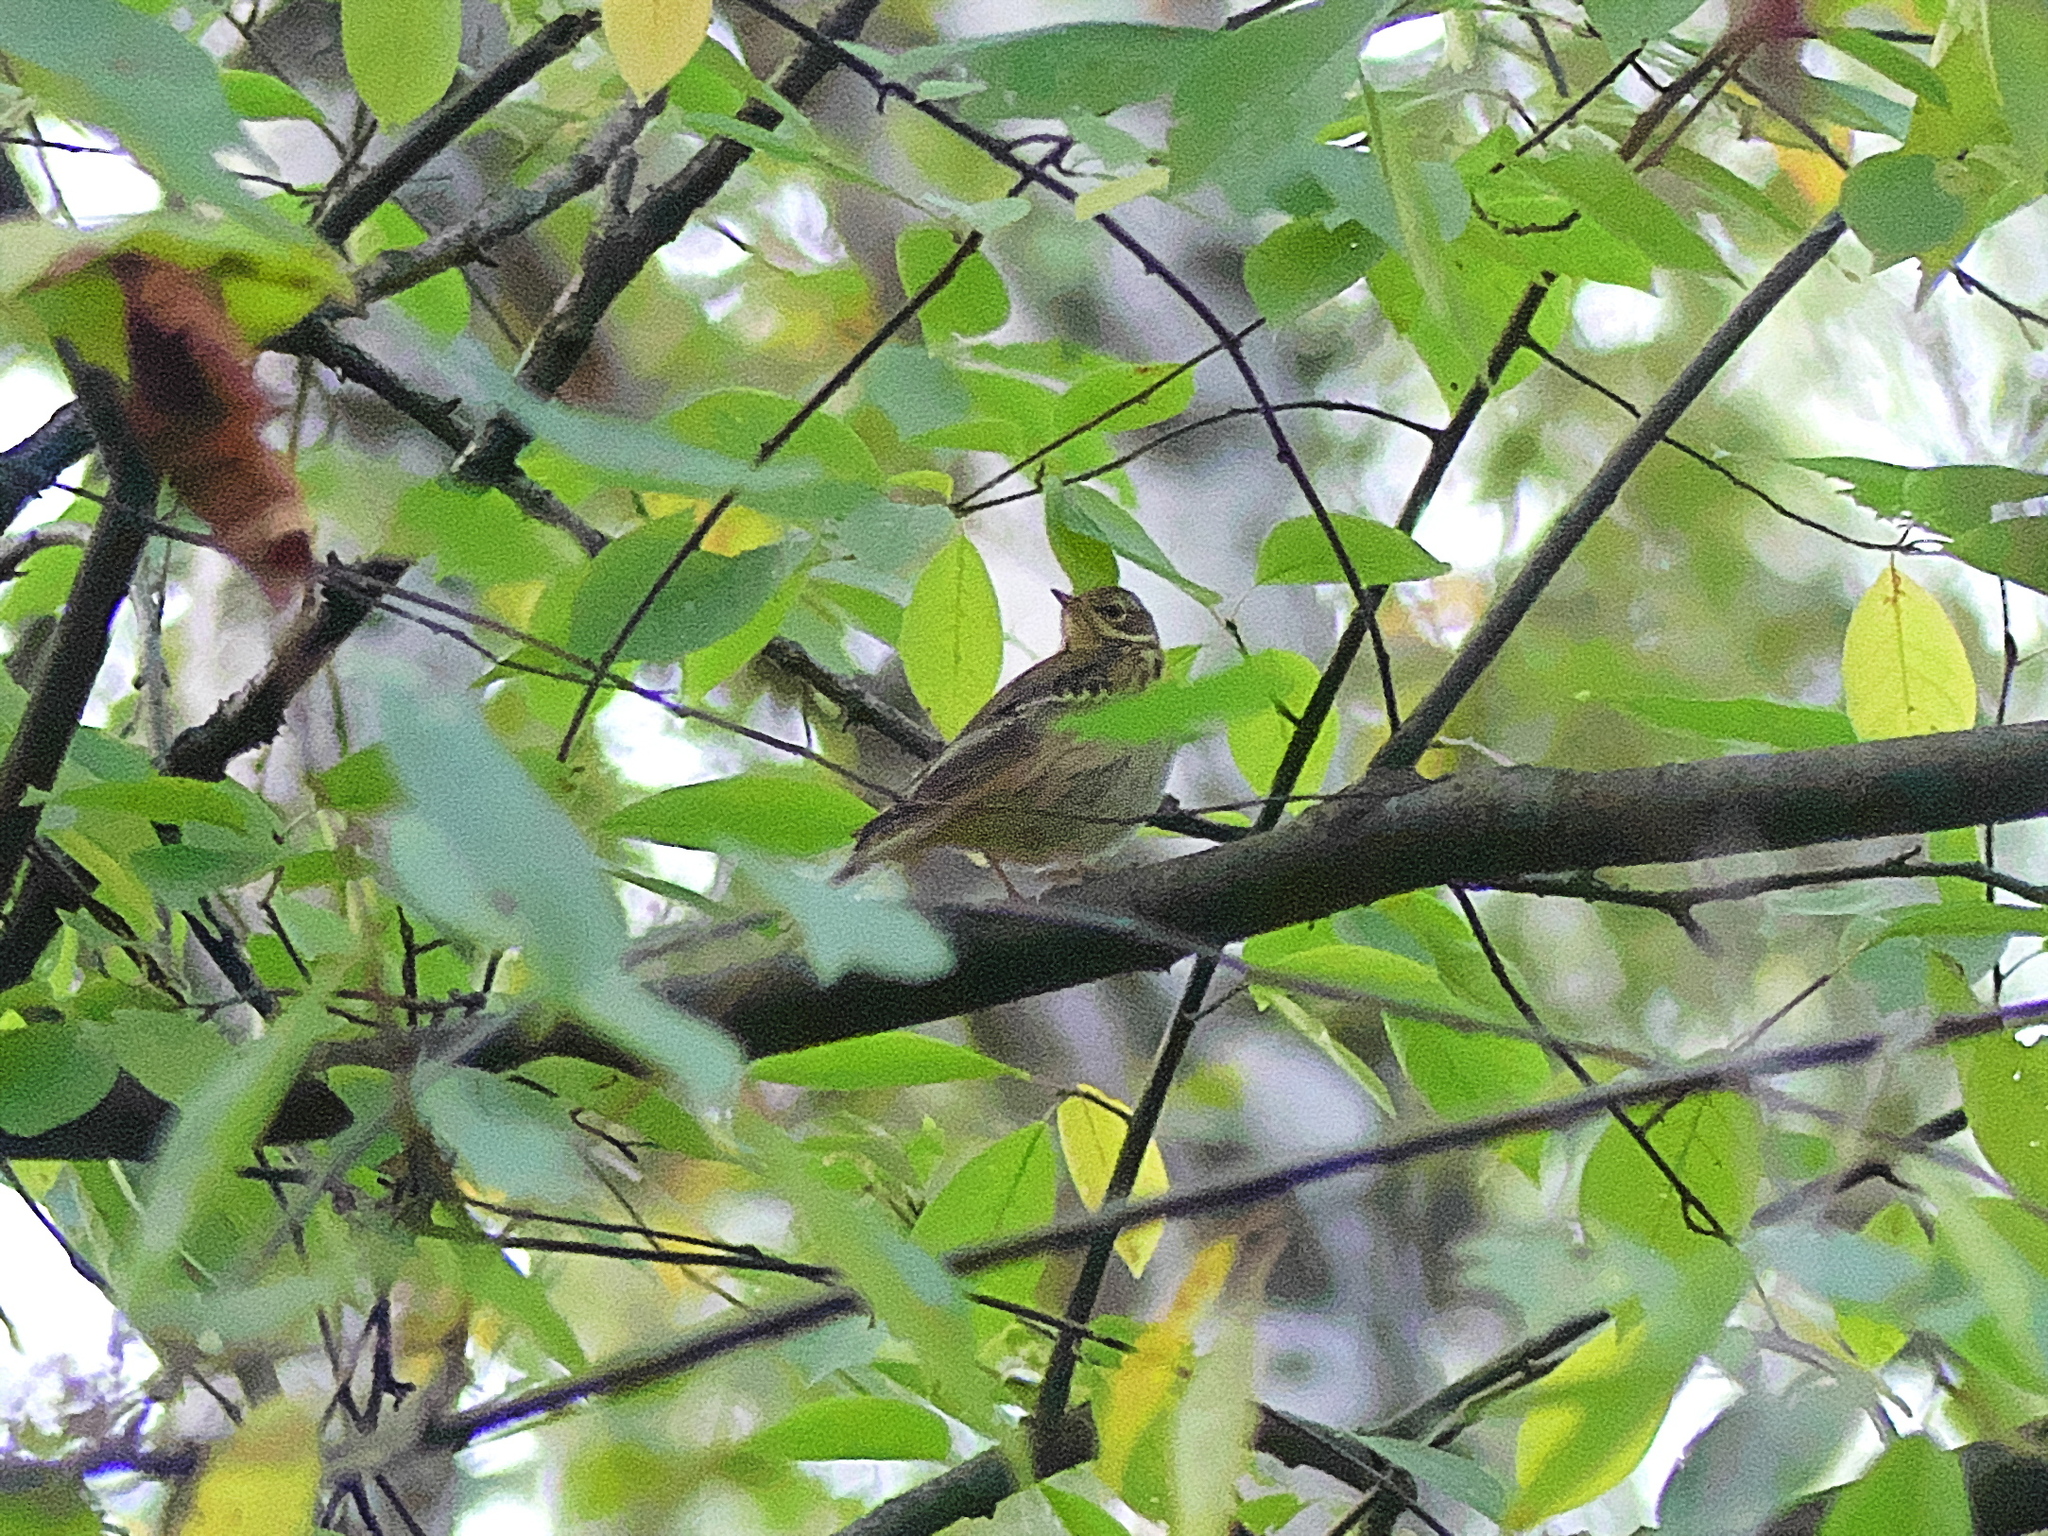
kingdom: Animalia
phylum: Chordata
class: Aves
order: Passeriformes
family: Motacillidae
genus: Anthus
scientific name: Anthus trivialis
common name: Tree pipit
